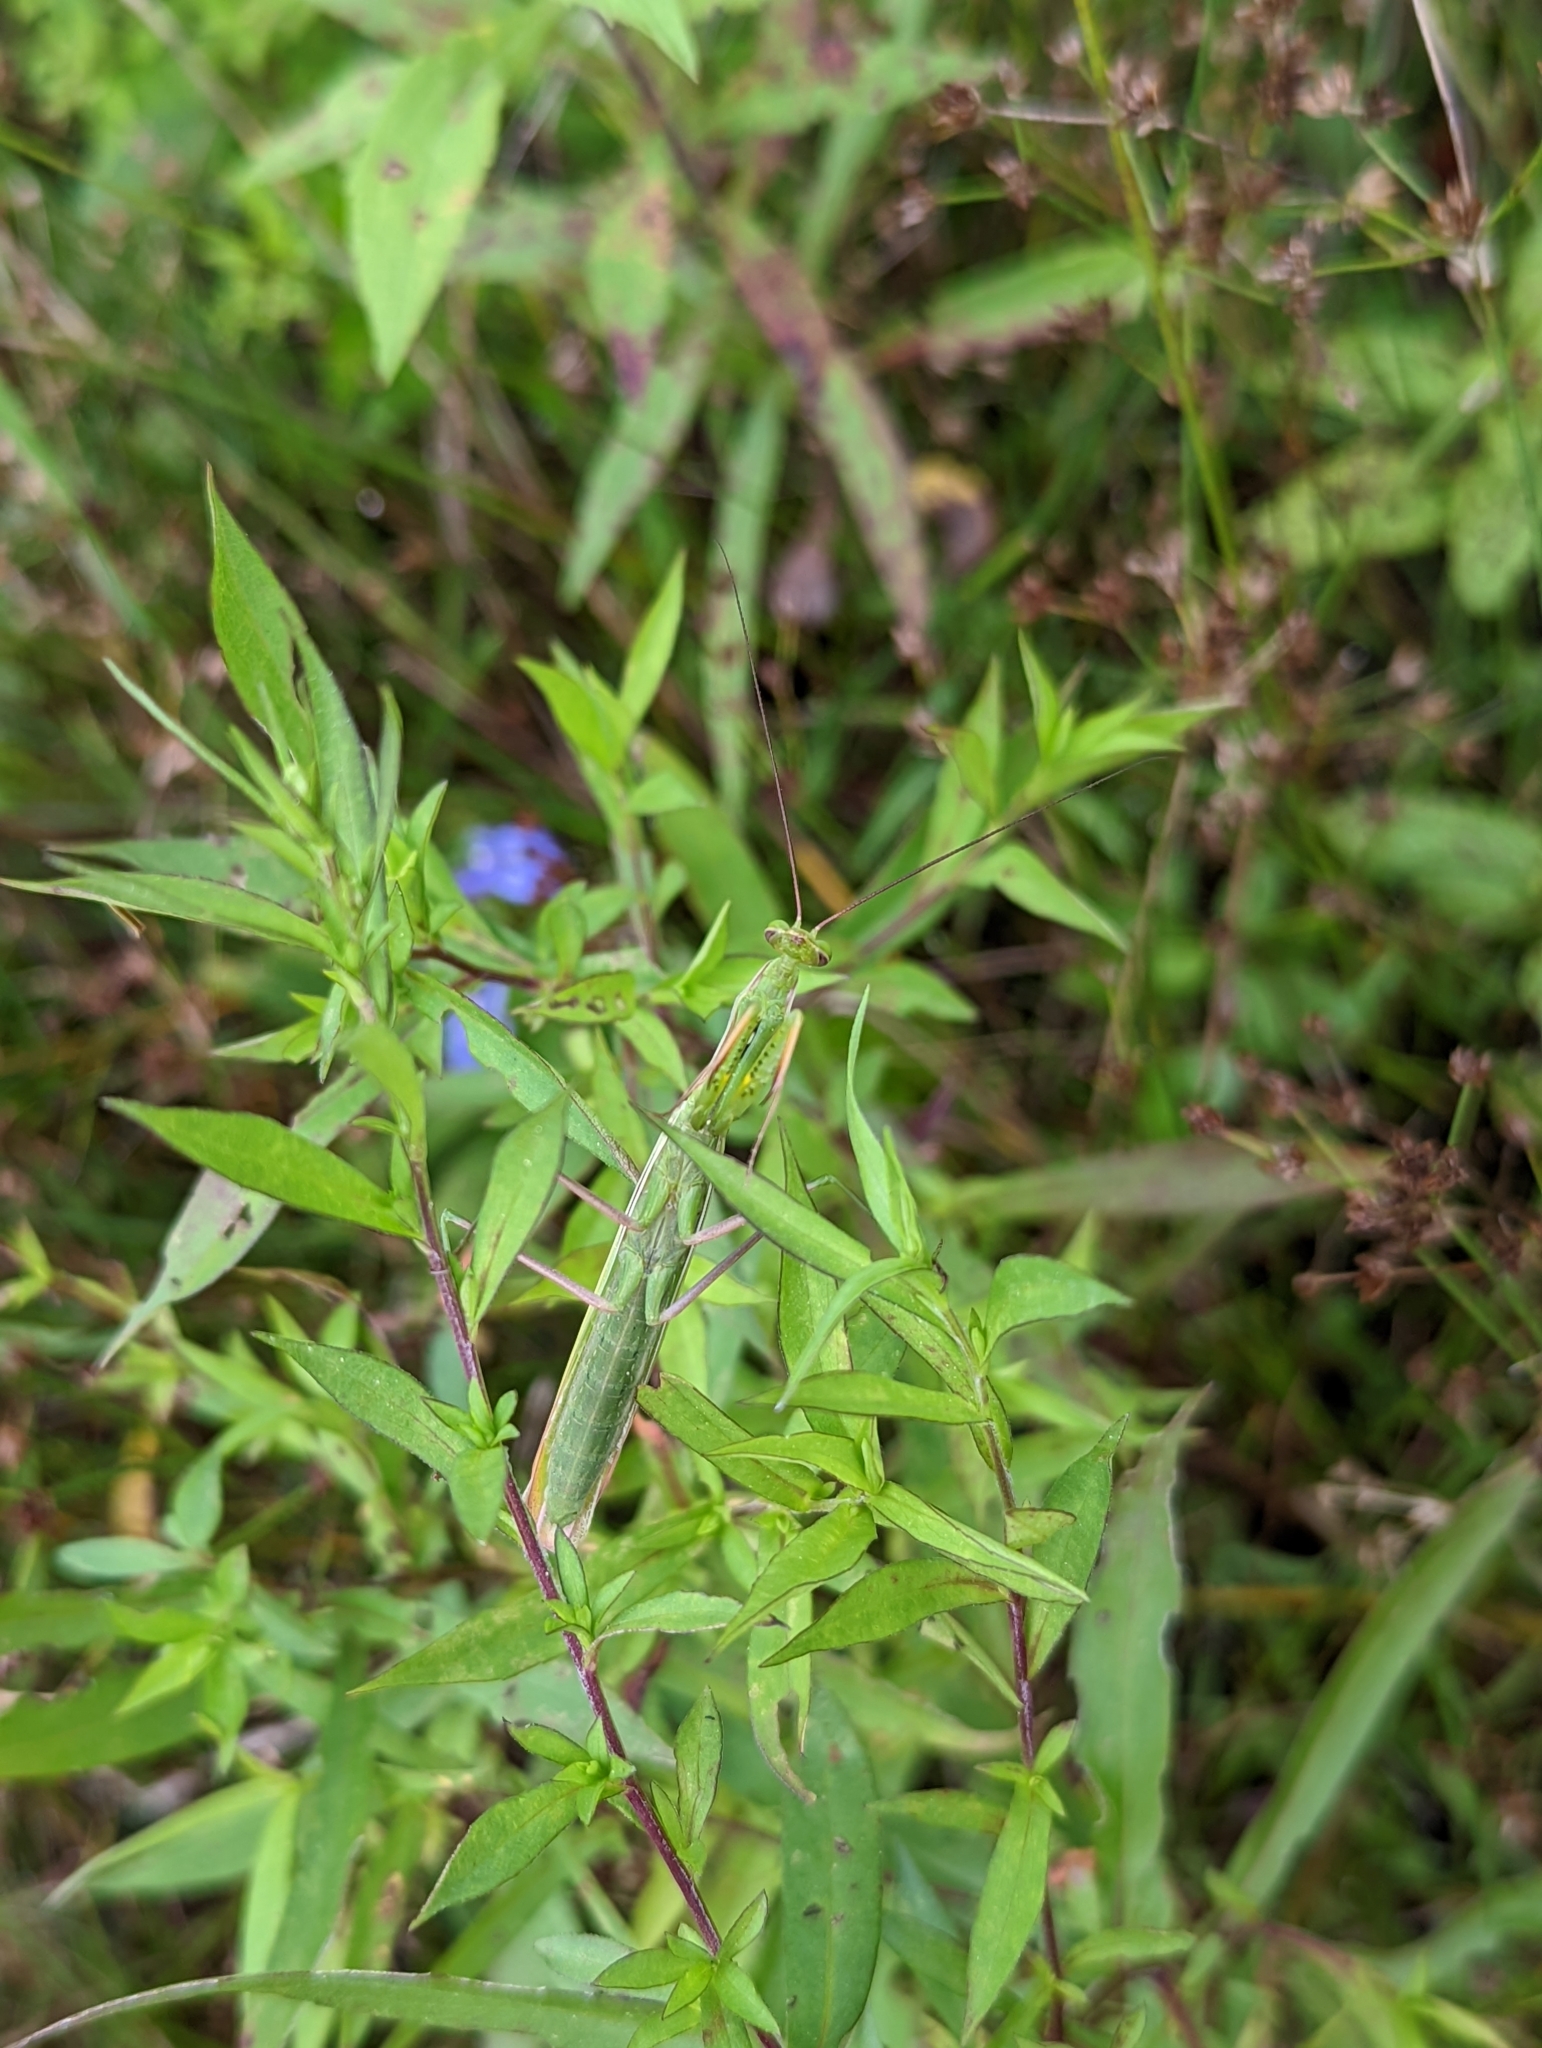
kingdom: Animalia
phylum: Arthropoda
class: Insecta
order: Mantodea
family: Mantidae
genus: Mantis
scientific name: Mantis religiosa
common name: Praying mantis
